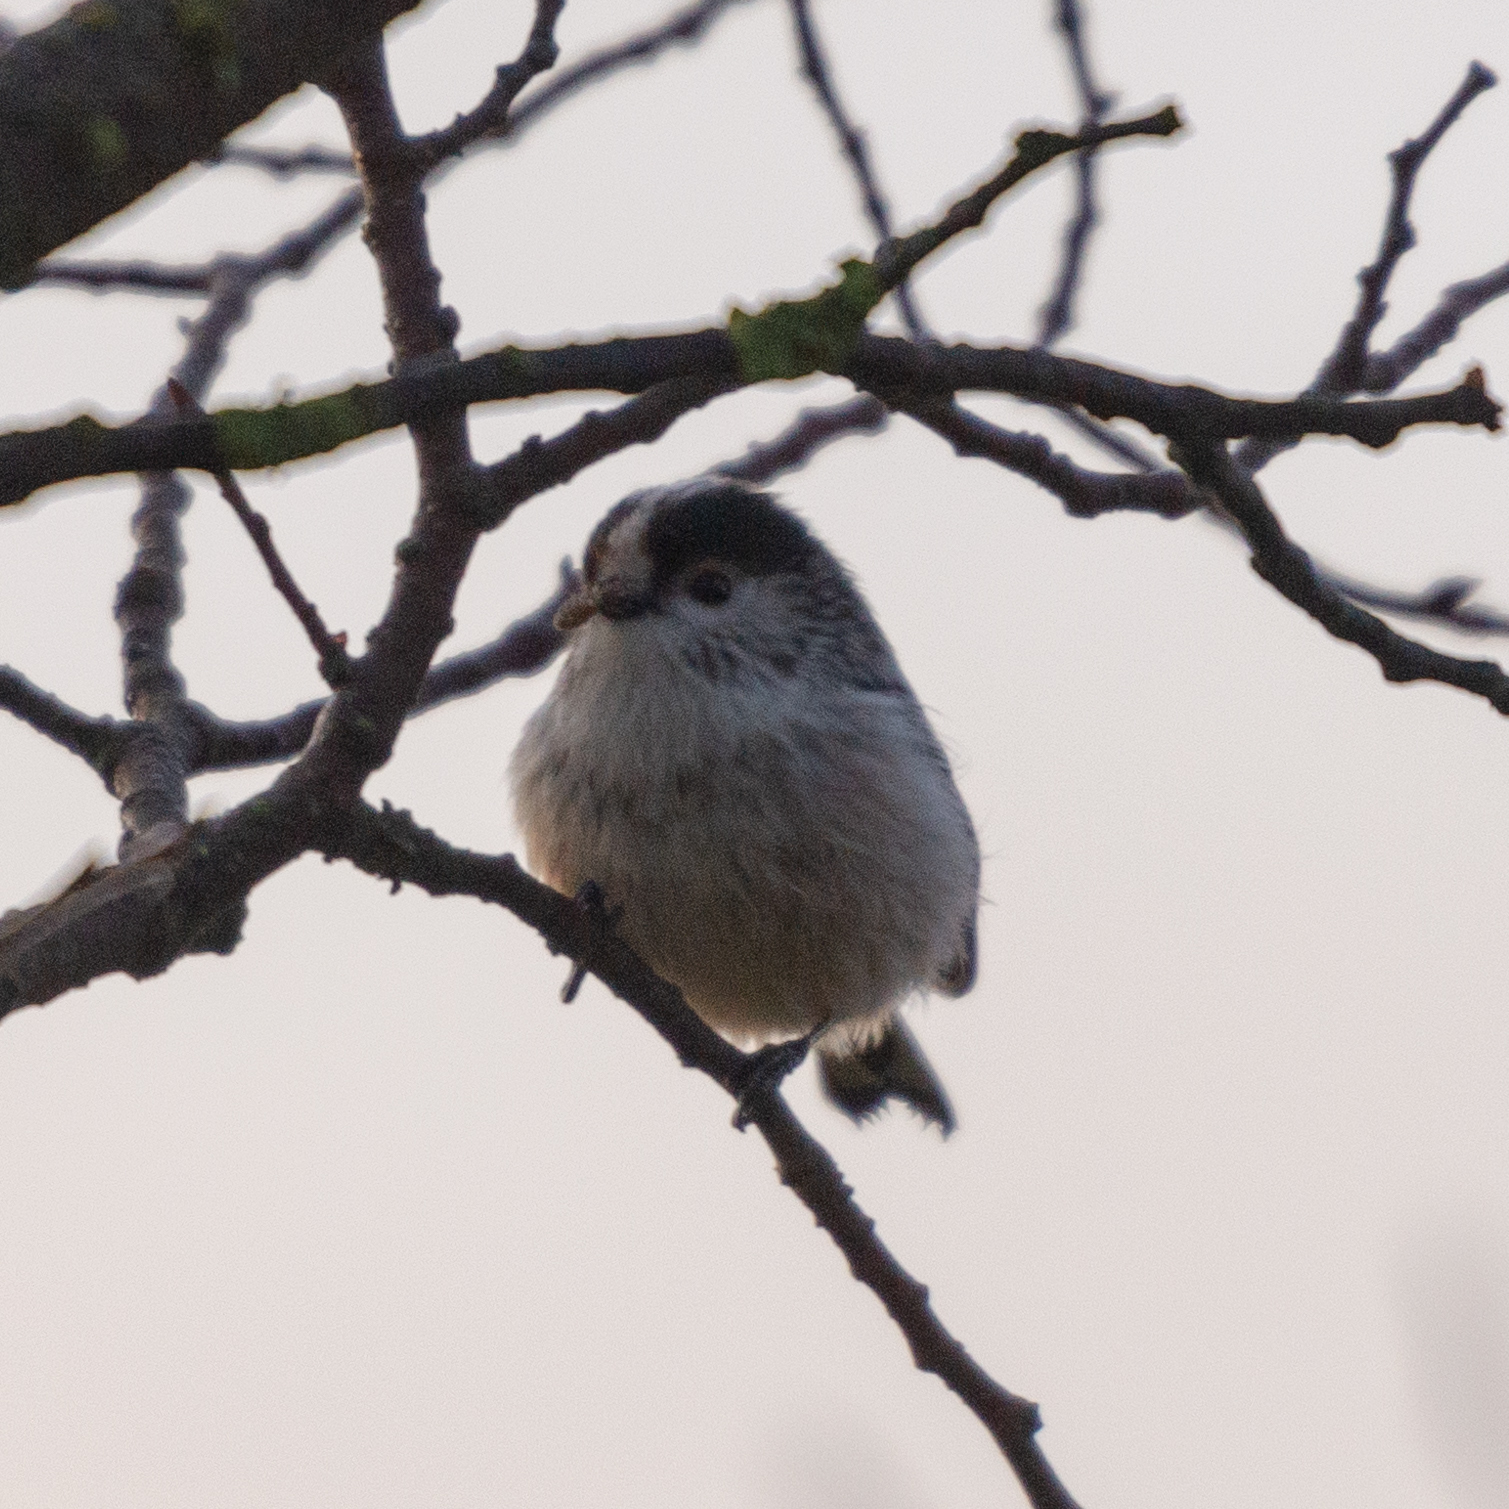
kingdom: Animalia
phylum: Chordata
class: Aves
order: Passeriformes
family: Aegithalidae
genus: Aegithalos
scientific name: Aegithalos caudatus
